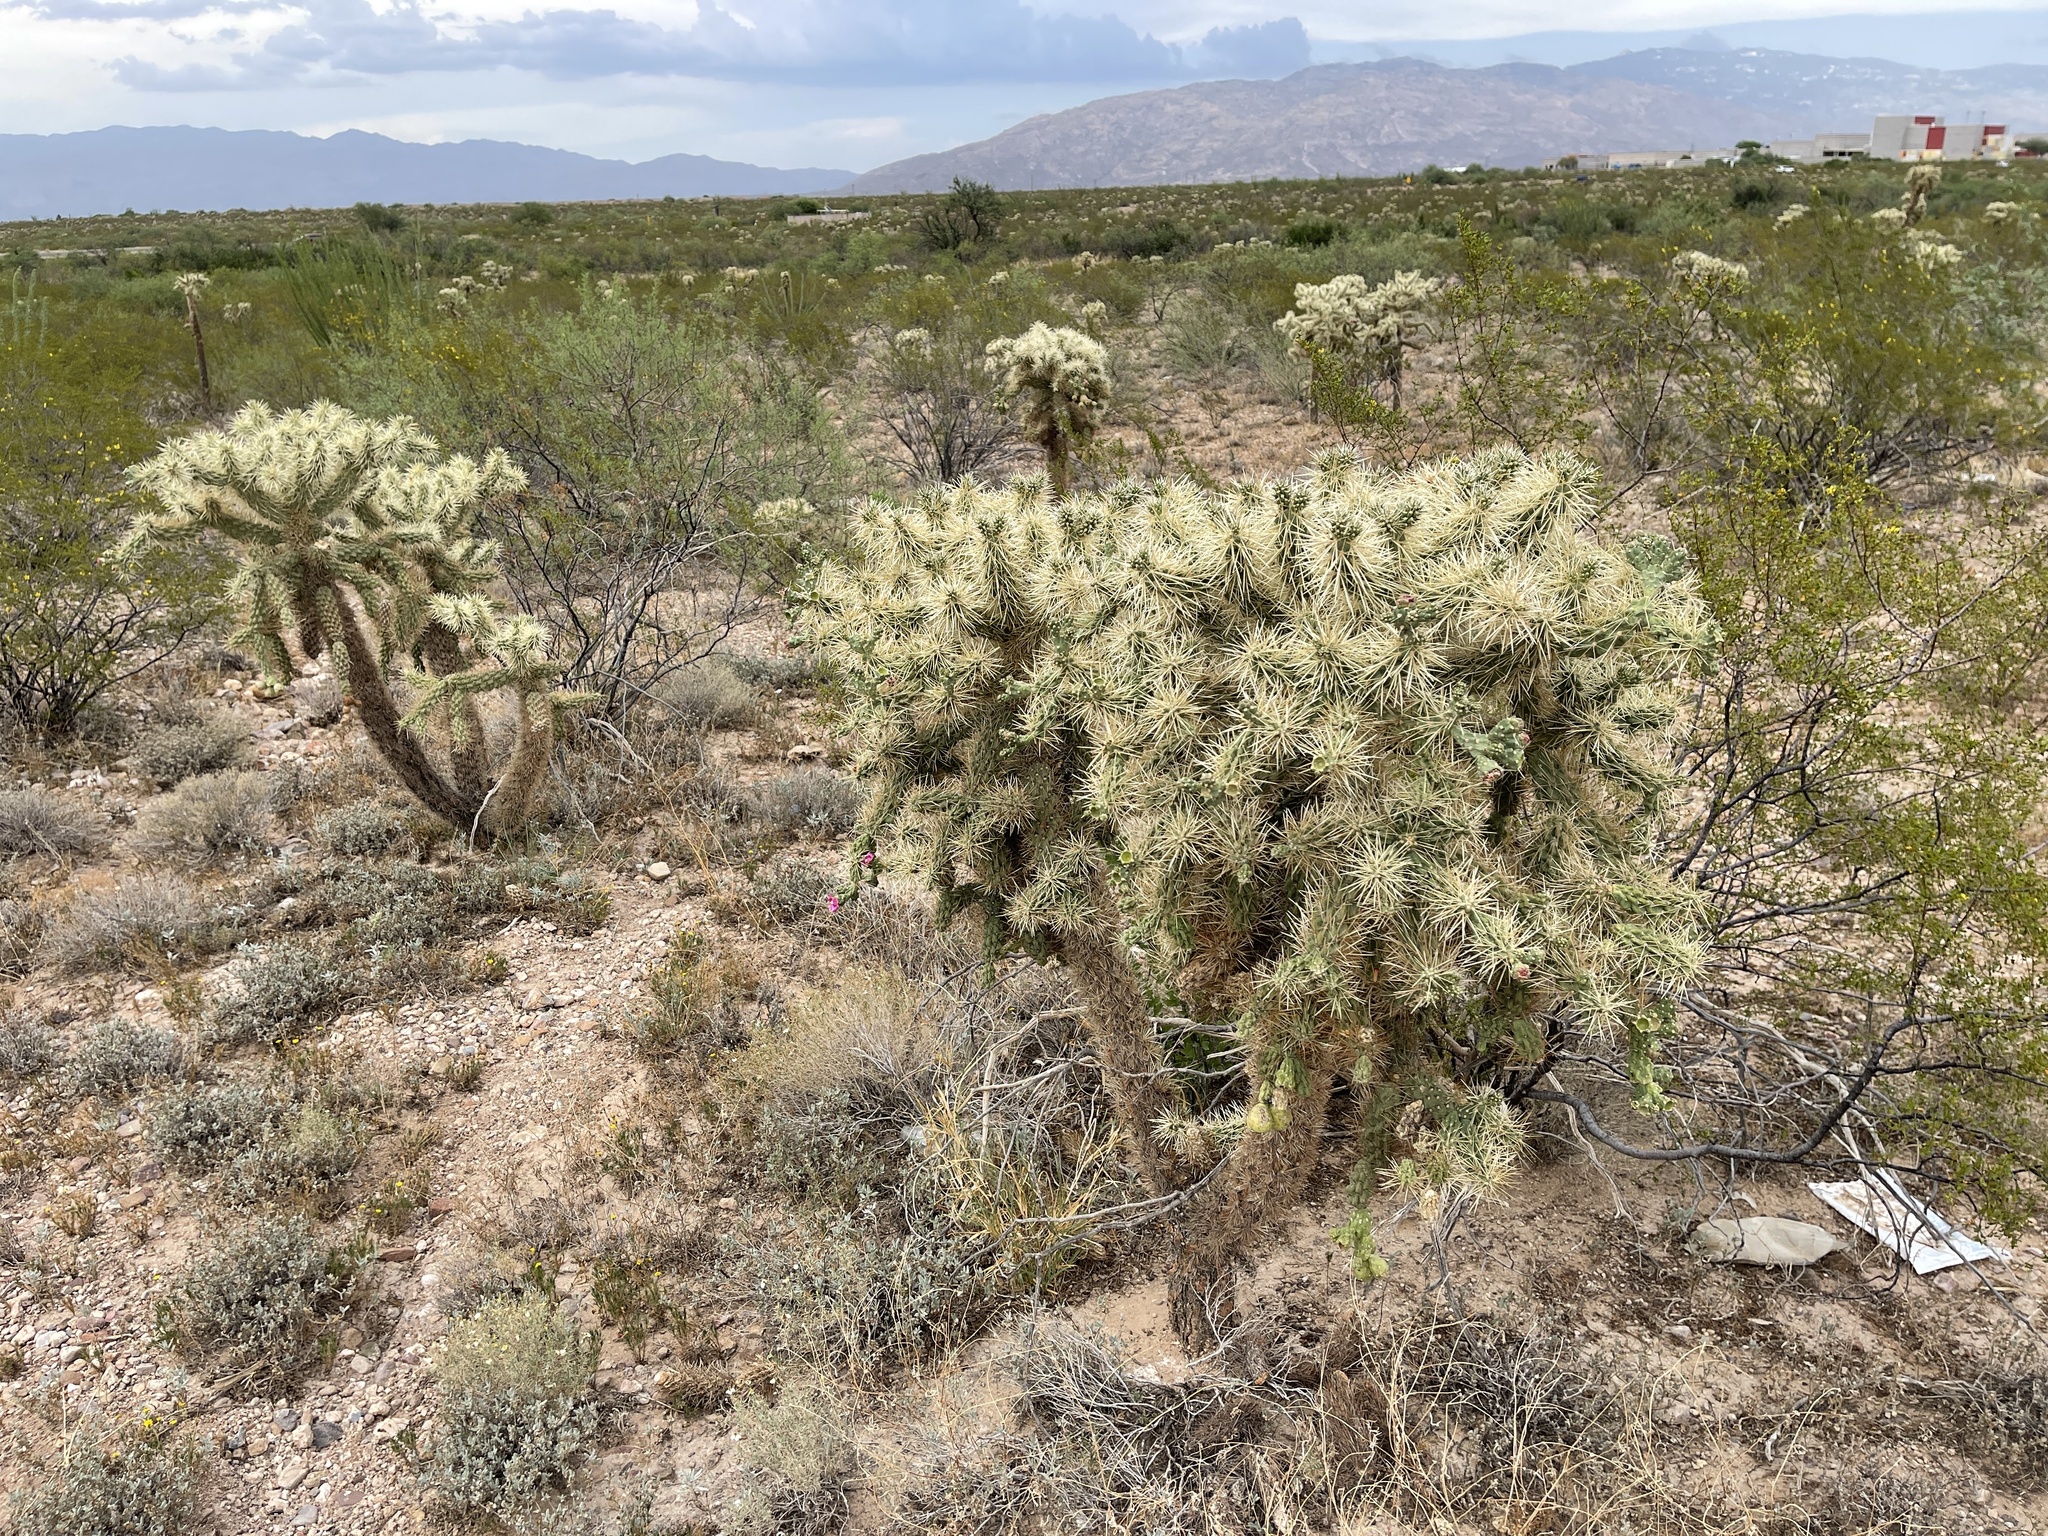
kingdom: Plantae
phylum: Tracheophyta
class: Magnoliopsida
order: Caryophyllales
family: Cactaceae
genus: Cylindropuntia
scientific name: Cylindropuntia fulgida
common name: Jumping cholla
